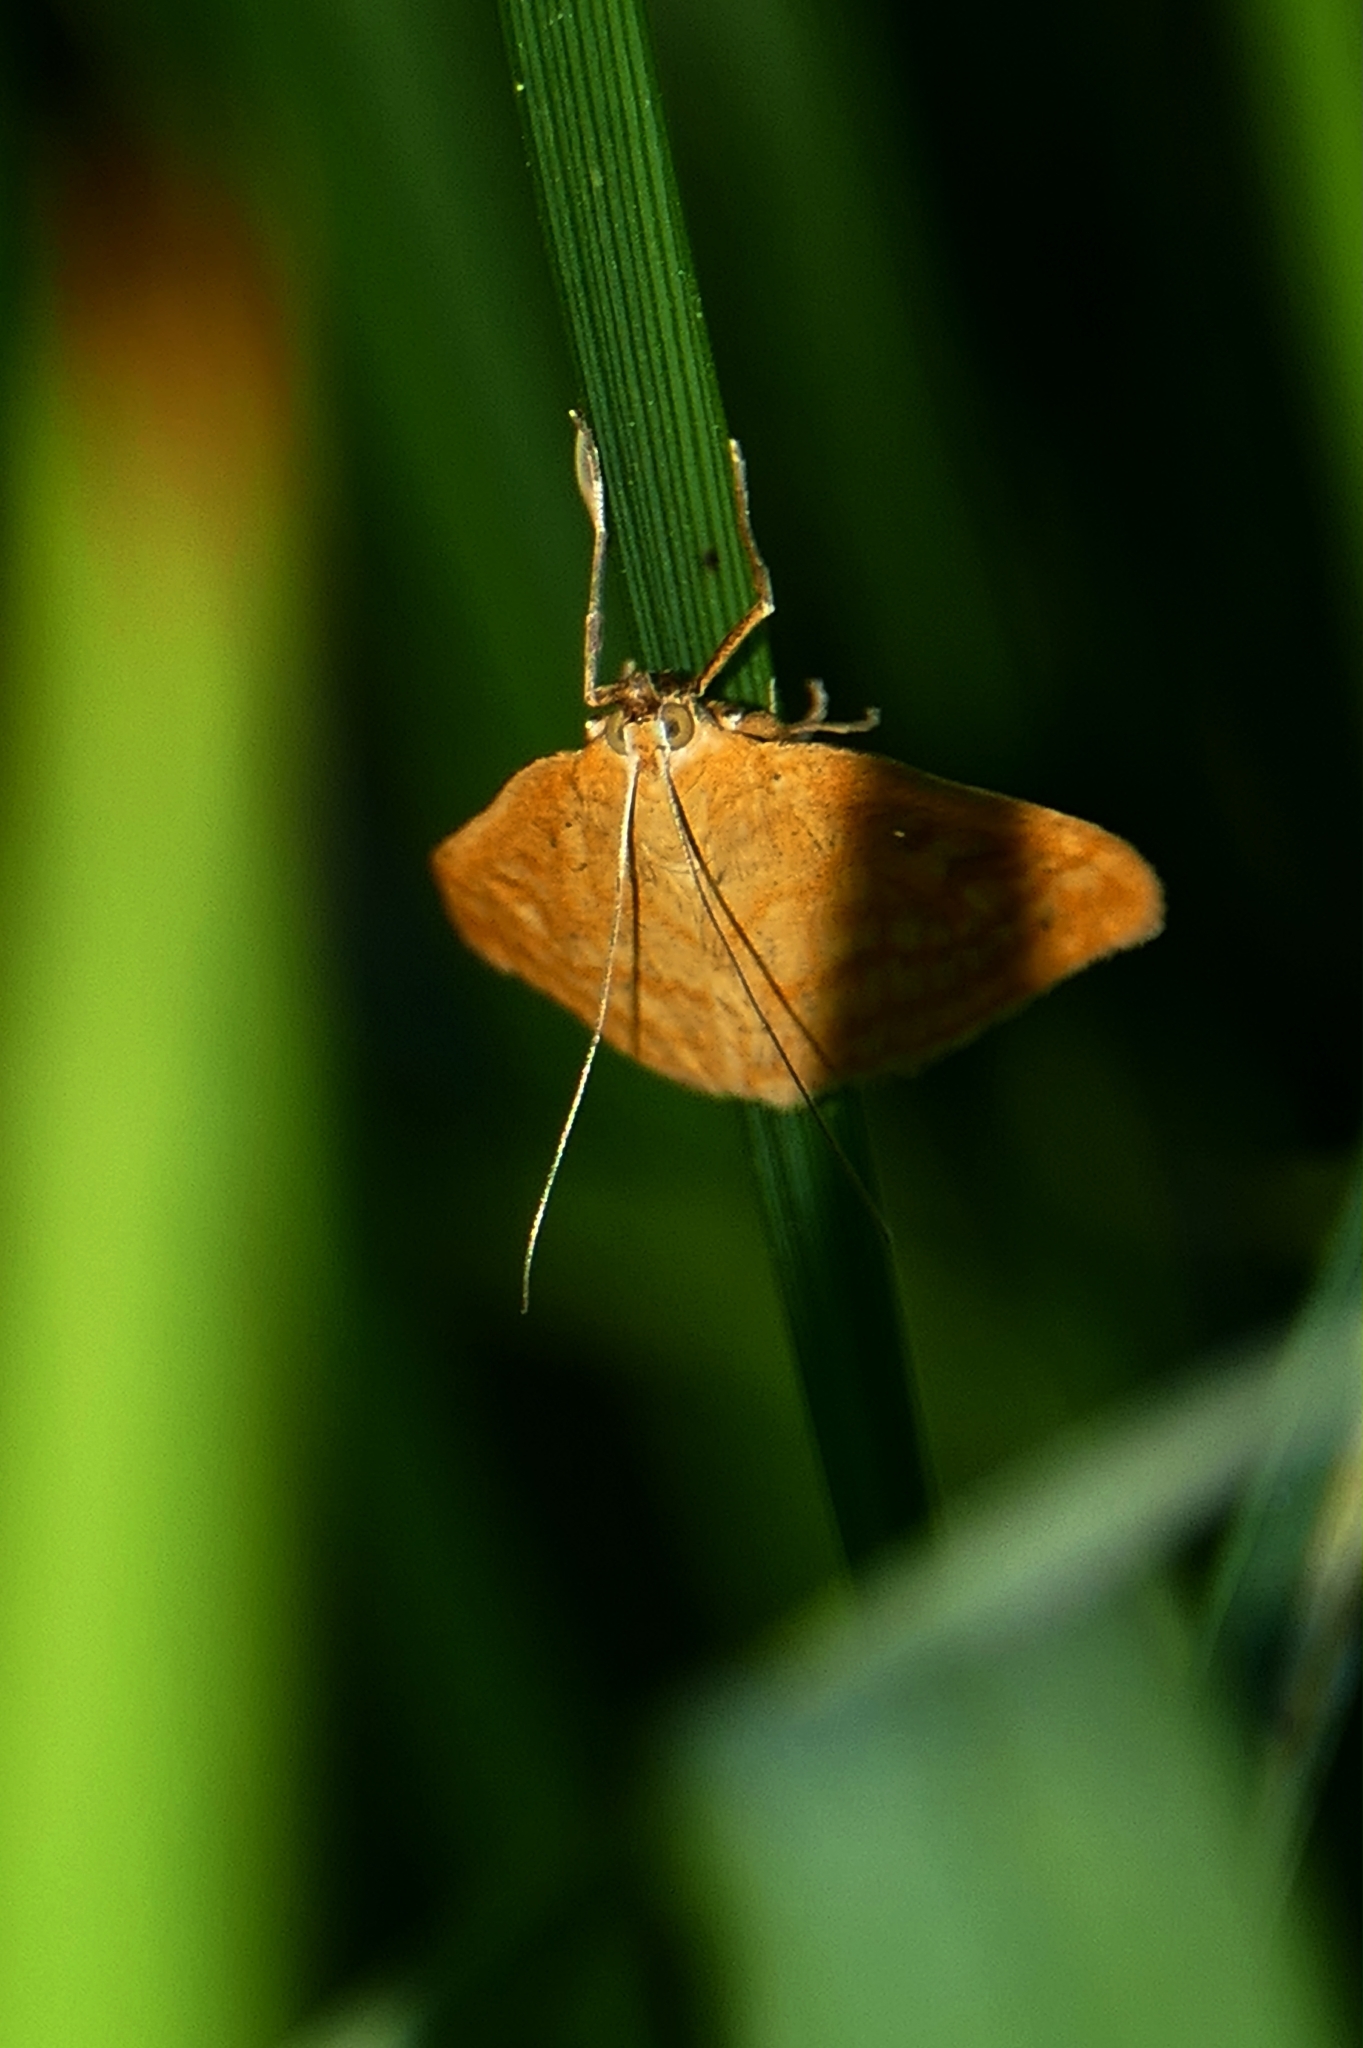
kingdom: Animalia
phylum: Arthropoda
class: Insecta
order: Lepidoptera
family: Crambidae
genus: Sitochroa
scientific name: Sitochroa verticalis
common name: Lesser pearl
